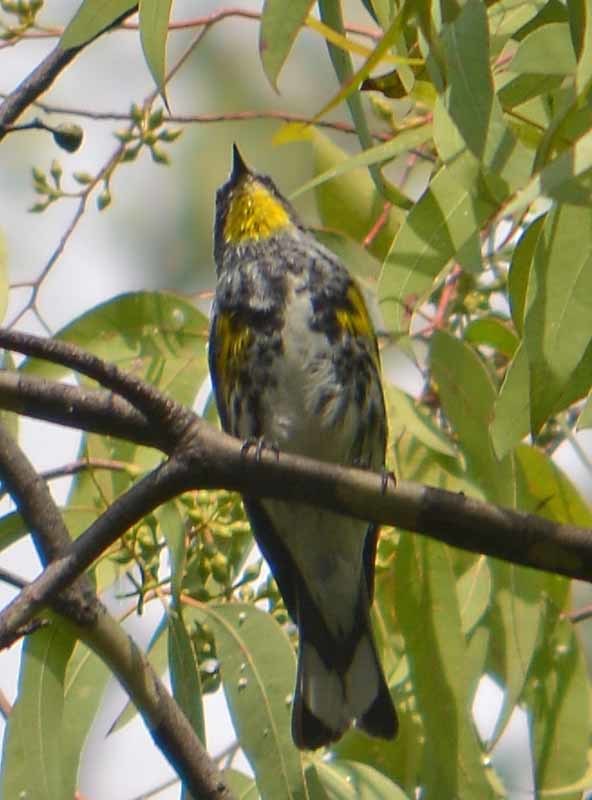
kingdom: Animalia
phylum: Chordata
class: Aves
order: Passeriformes
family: Parulidae
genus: Setophaga
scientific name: Setophaga coronata
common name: Myrtle warbler
